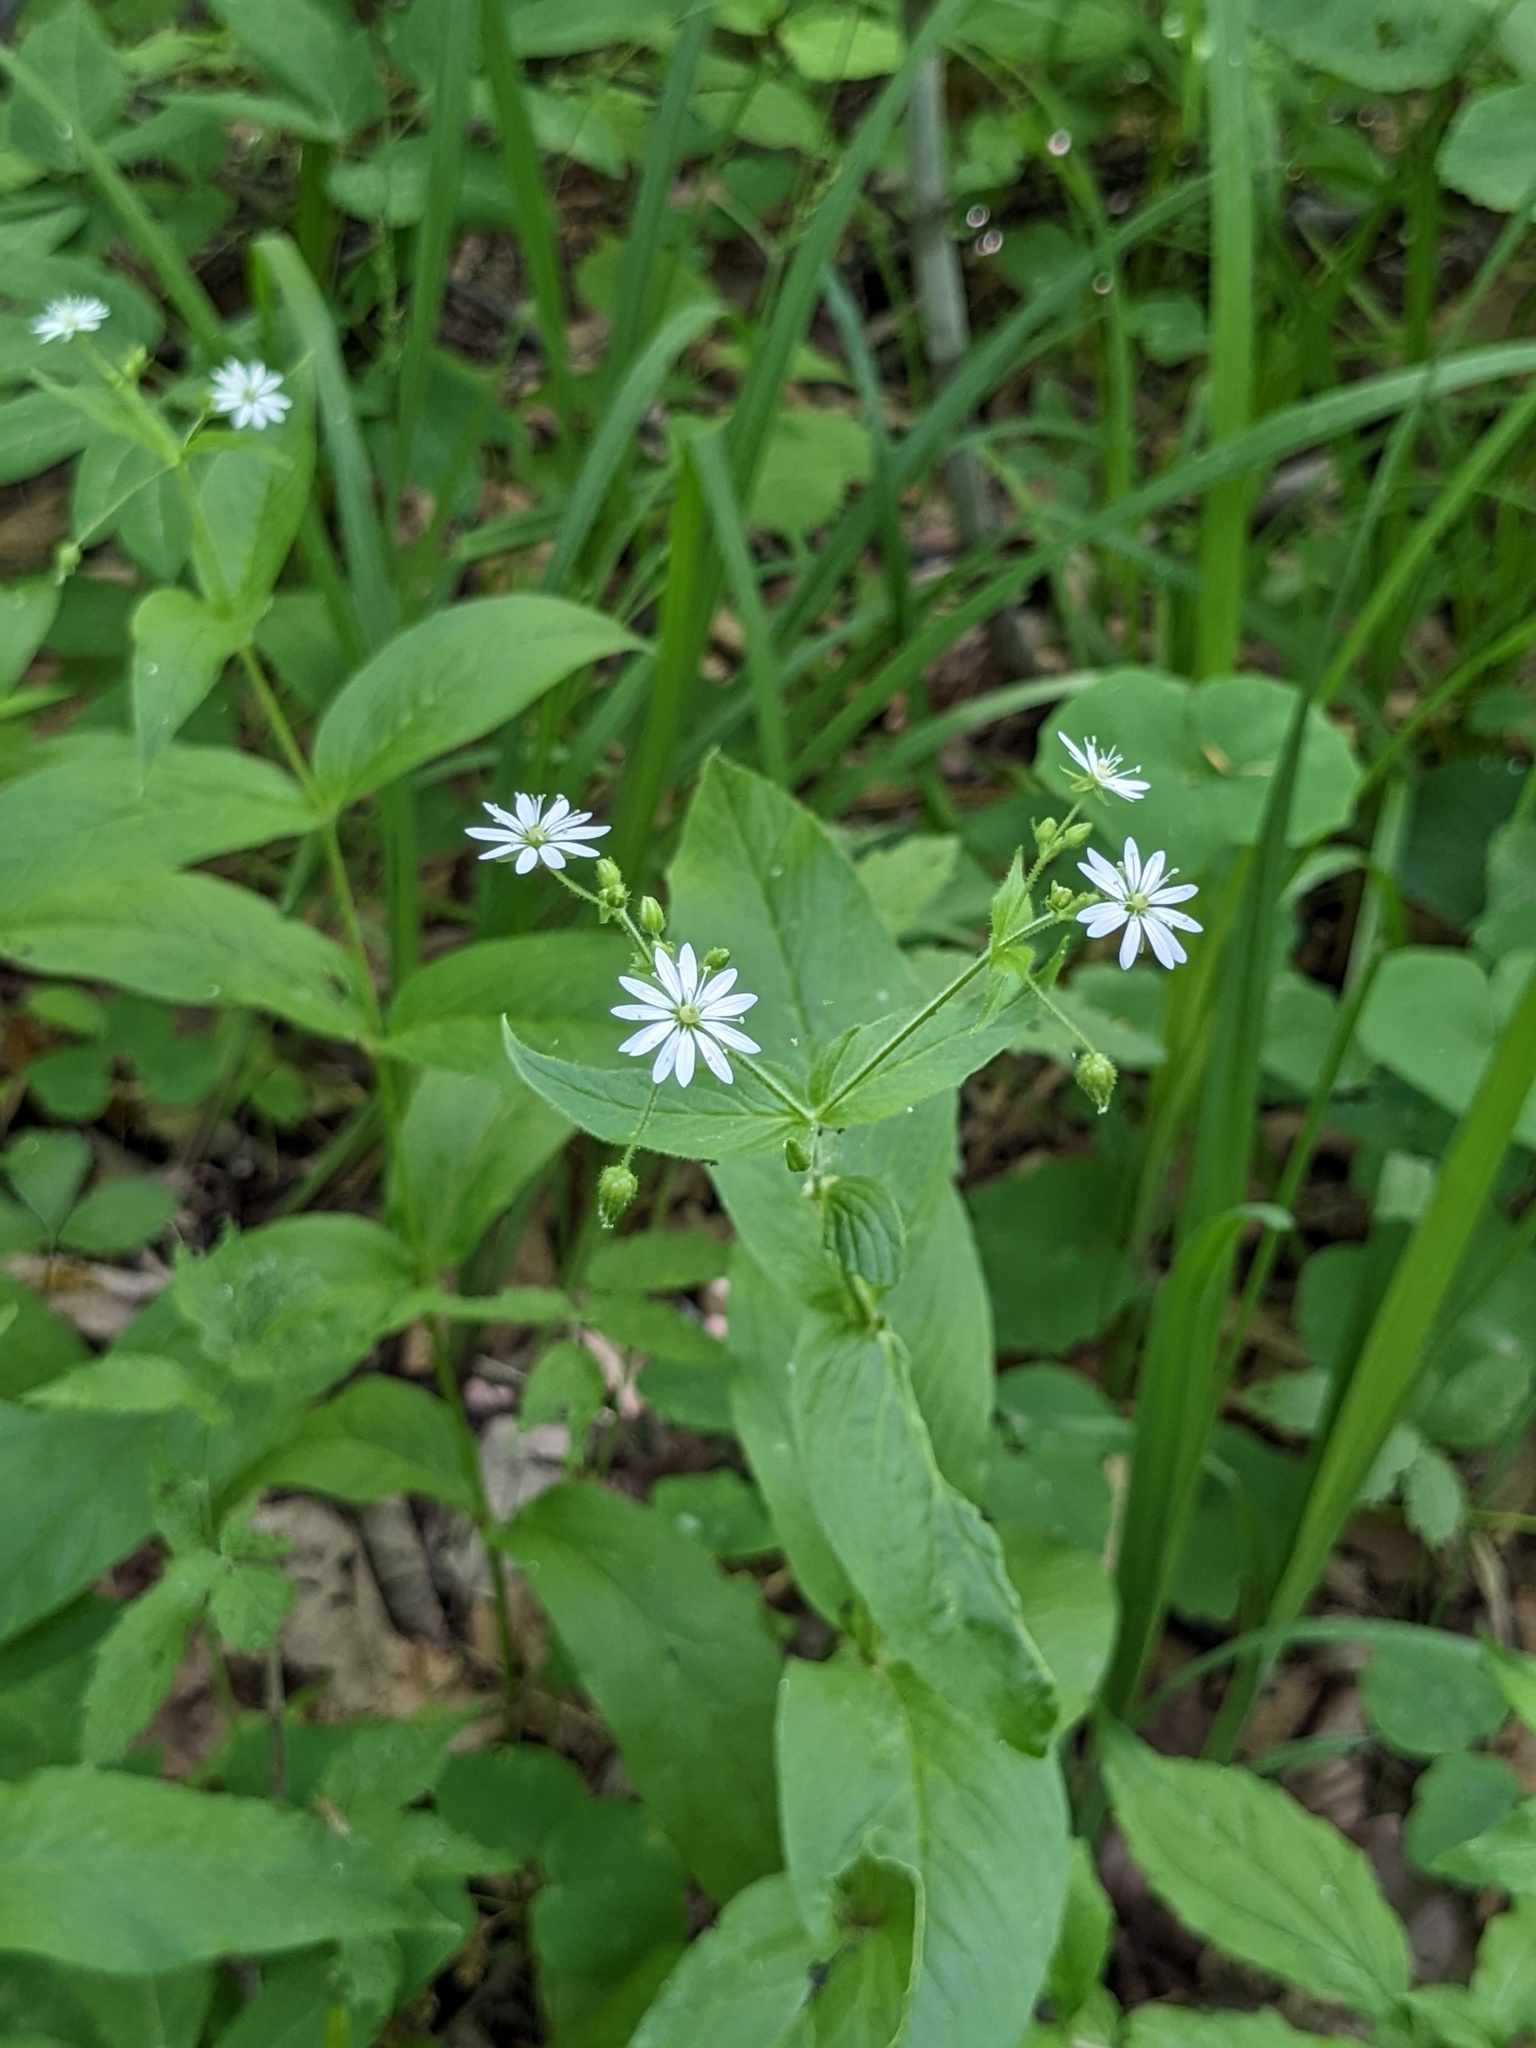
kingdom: Plantae
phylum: Tracheophyta
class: Magnoliopsida
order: Caryophyllales
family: Caryophyllaceae
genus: Stellaria
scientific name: Stellaria bungeana
